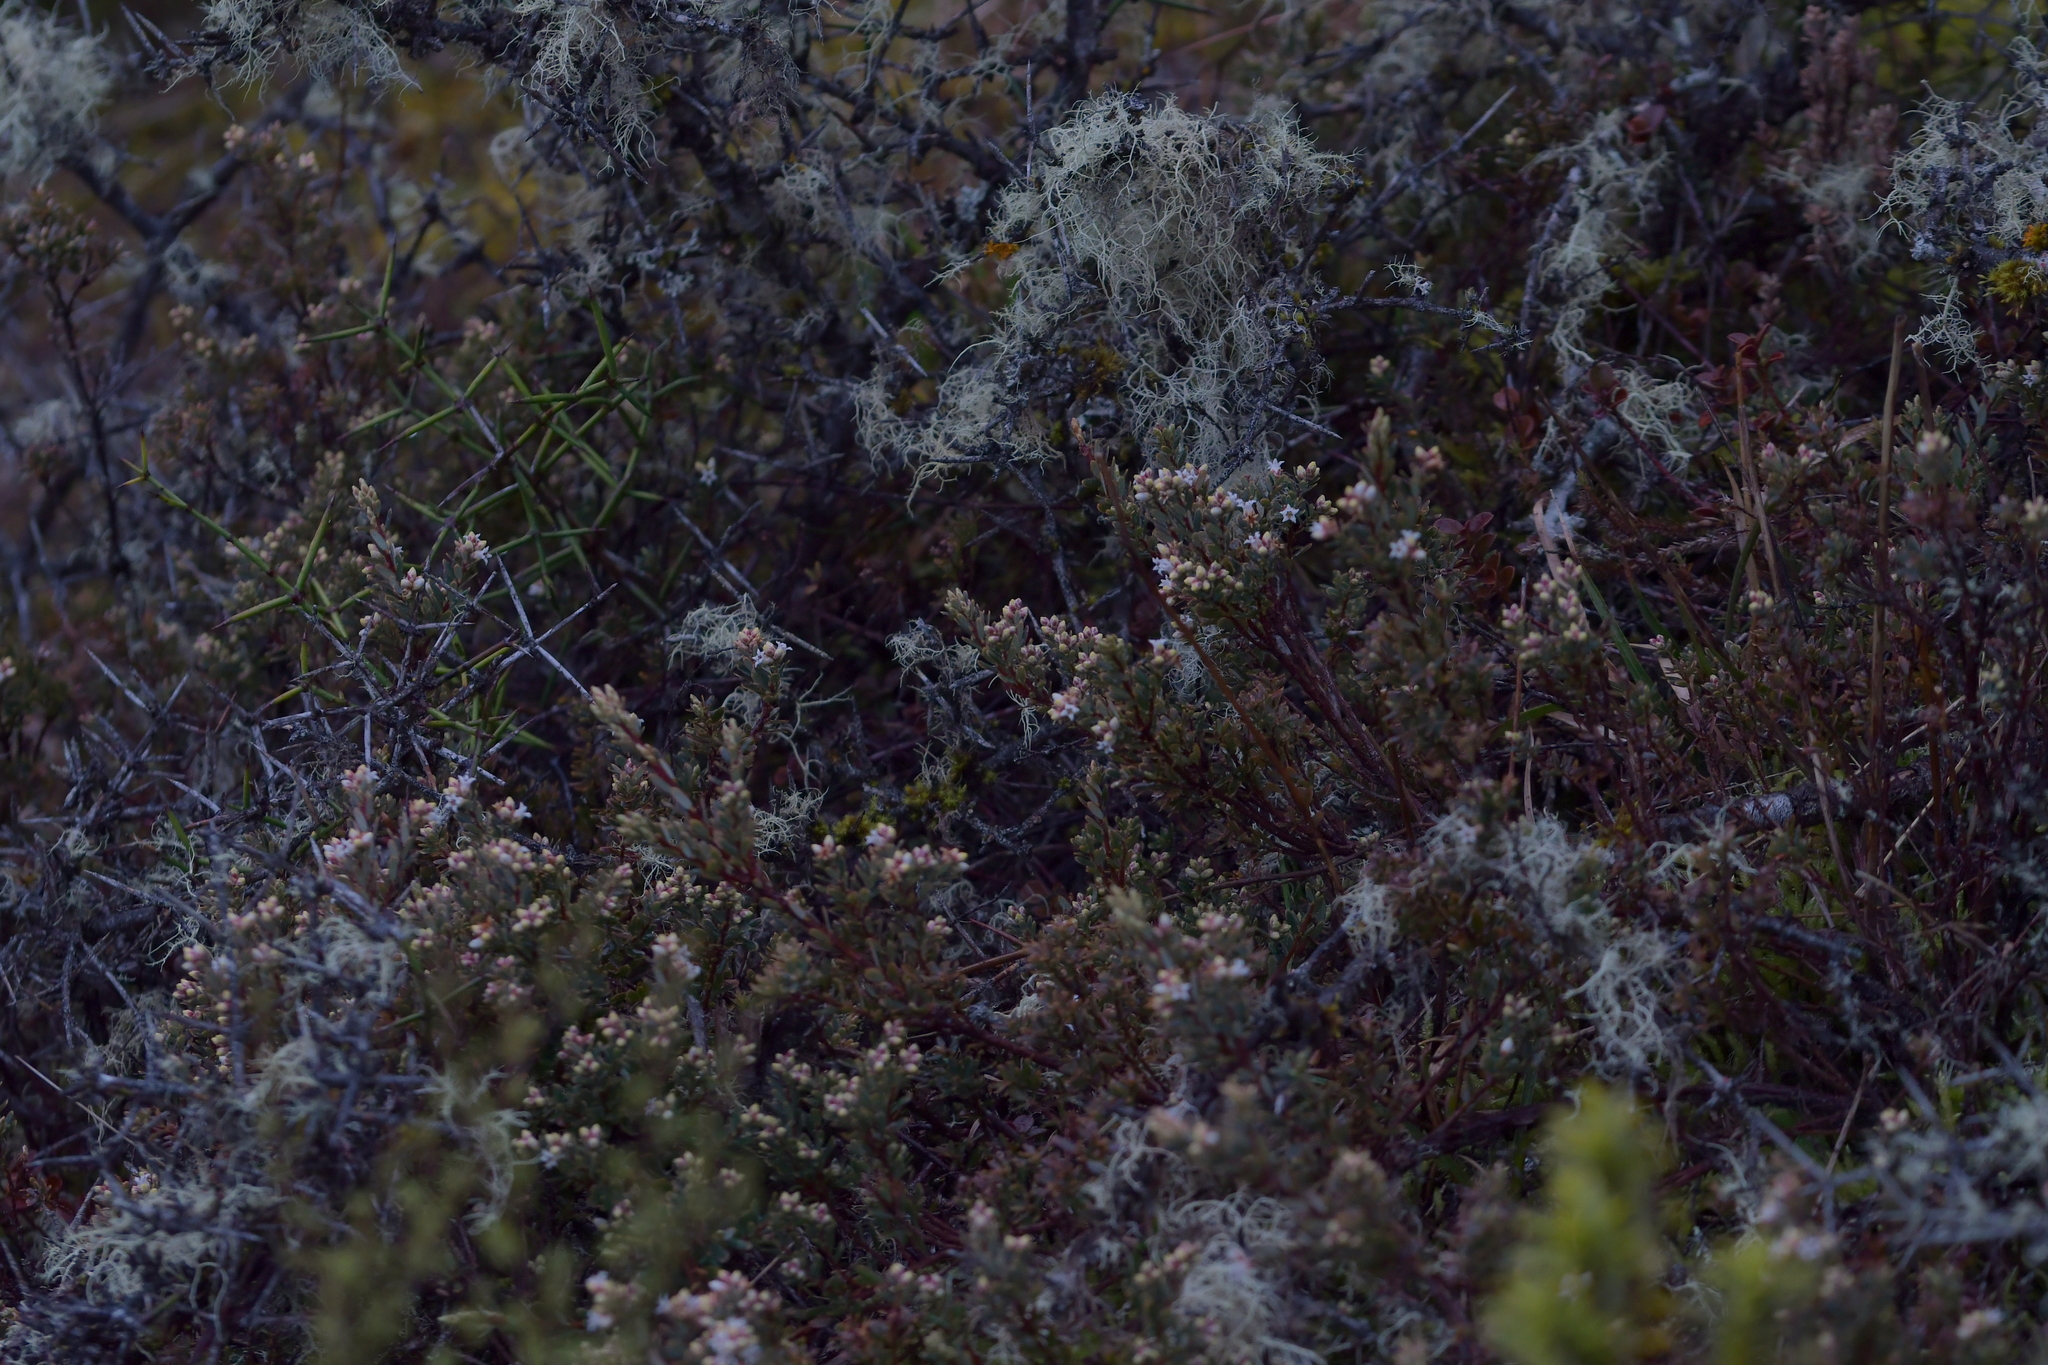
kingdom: Plantae
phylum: Tracheophyta
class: Magnoliopsida
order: Ericales
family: Ericaceae
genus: Acrothamnus
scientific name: Acrothamnus colensoi
